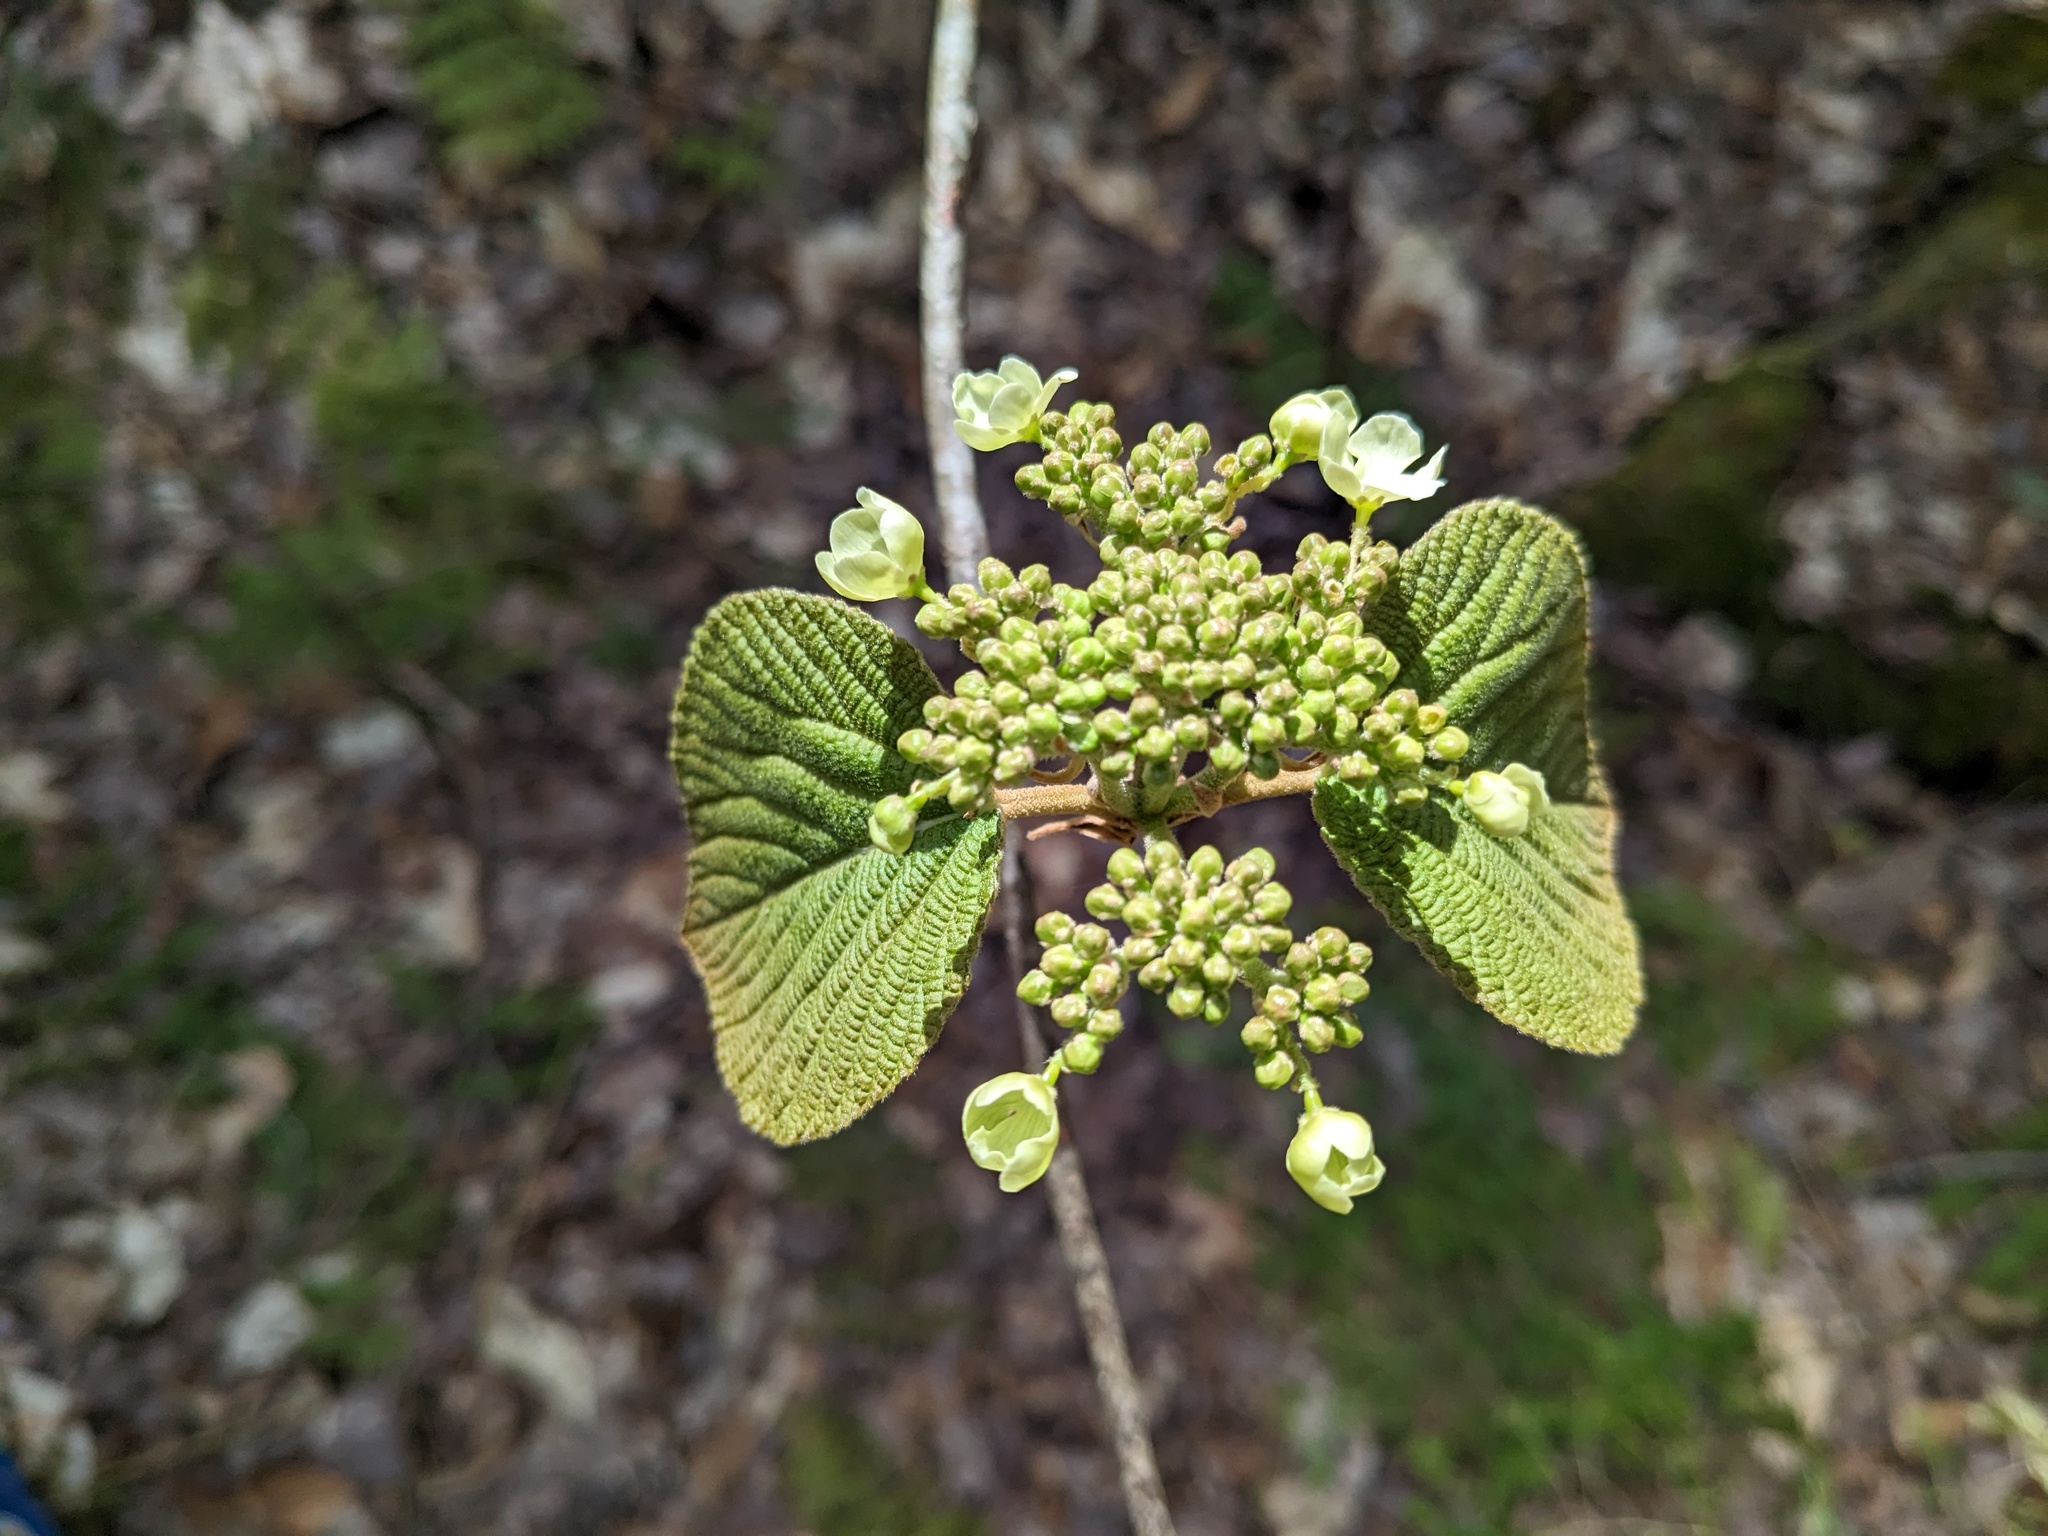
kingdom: Plantae
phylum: Tracheophyta
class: Magnoliopsida
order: Dipsacales
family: Viburnaceae
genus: Viburnum
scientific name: Viburnum lantanoides
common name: Hobblebush
